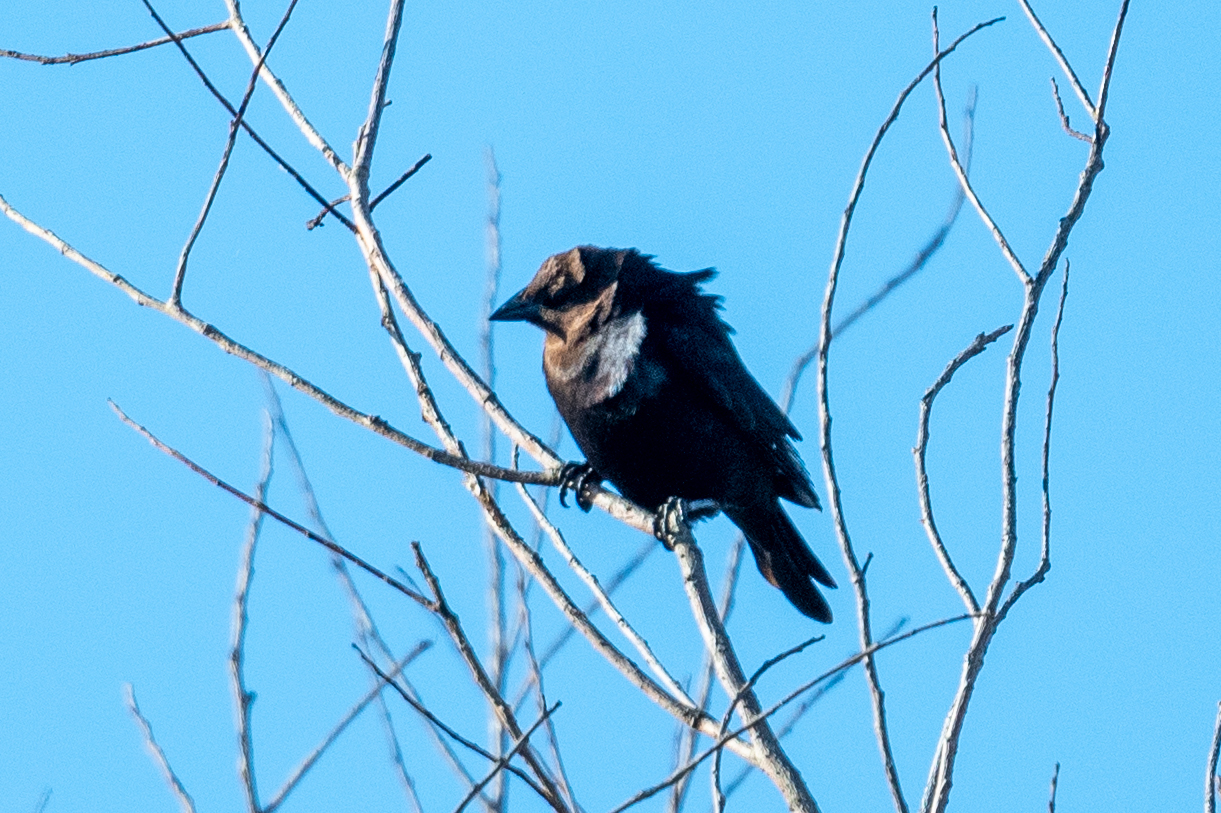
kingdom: Animalia
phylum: Chordata
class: Aves
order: Passeriformes
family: Icteridae
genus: Molothrus
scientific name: Molothrus ater
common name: Brown-headed cowbird
